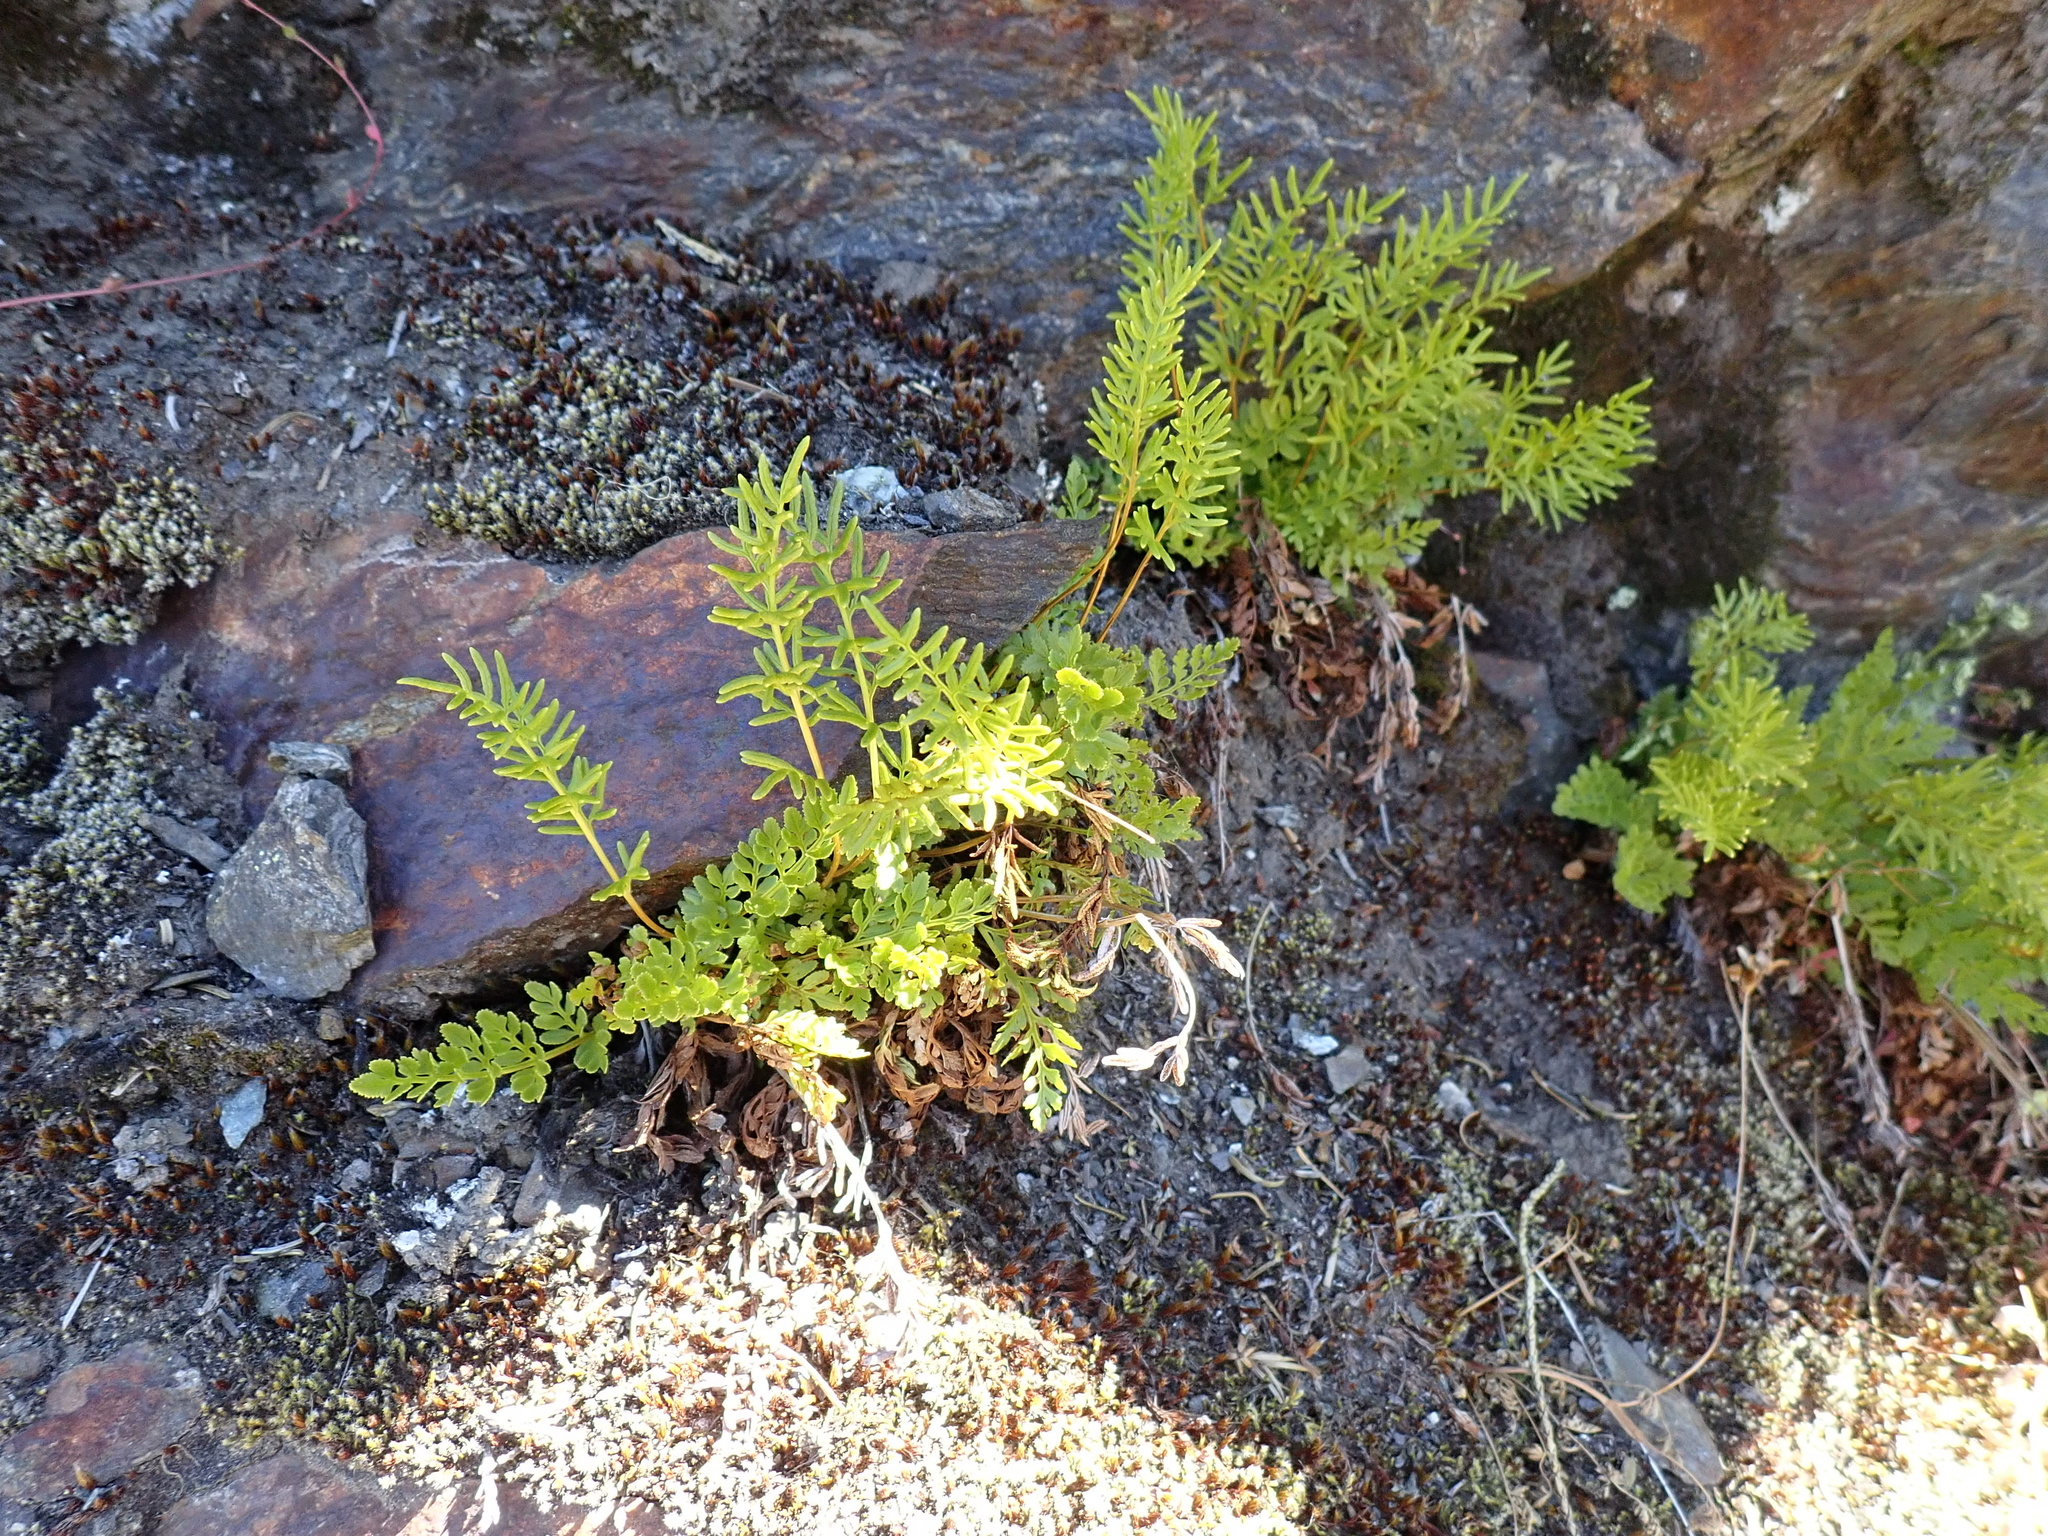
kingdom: Plantae
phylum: Tracheophyta
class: Polypodiopsida
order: Polypodiales
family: Pteridaceae
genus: Aspidotis
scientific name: Aspidotis densa
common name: Indian's dream
